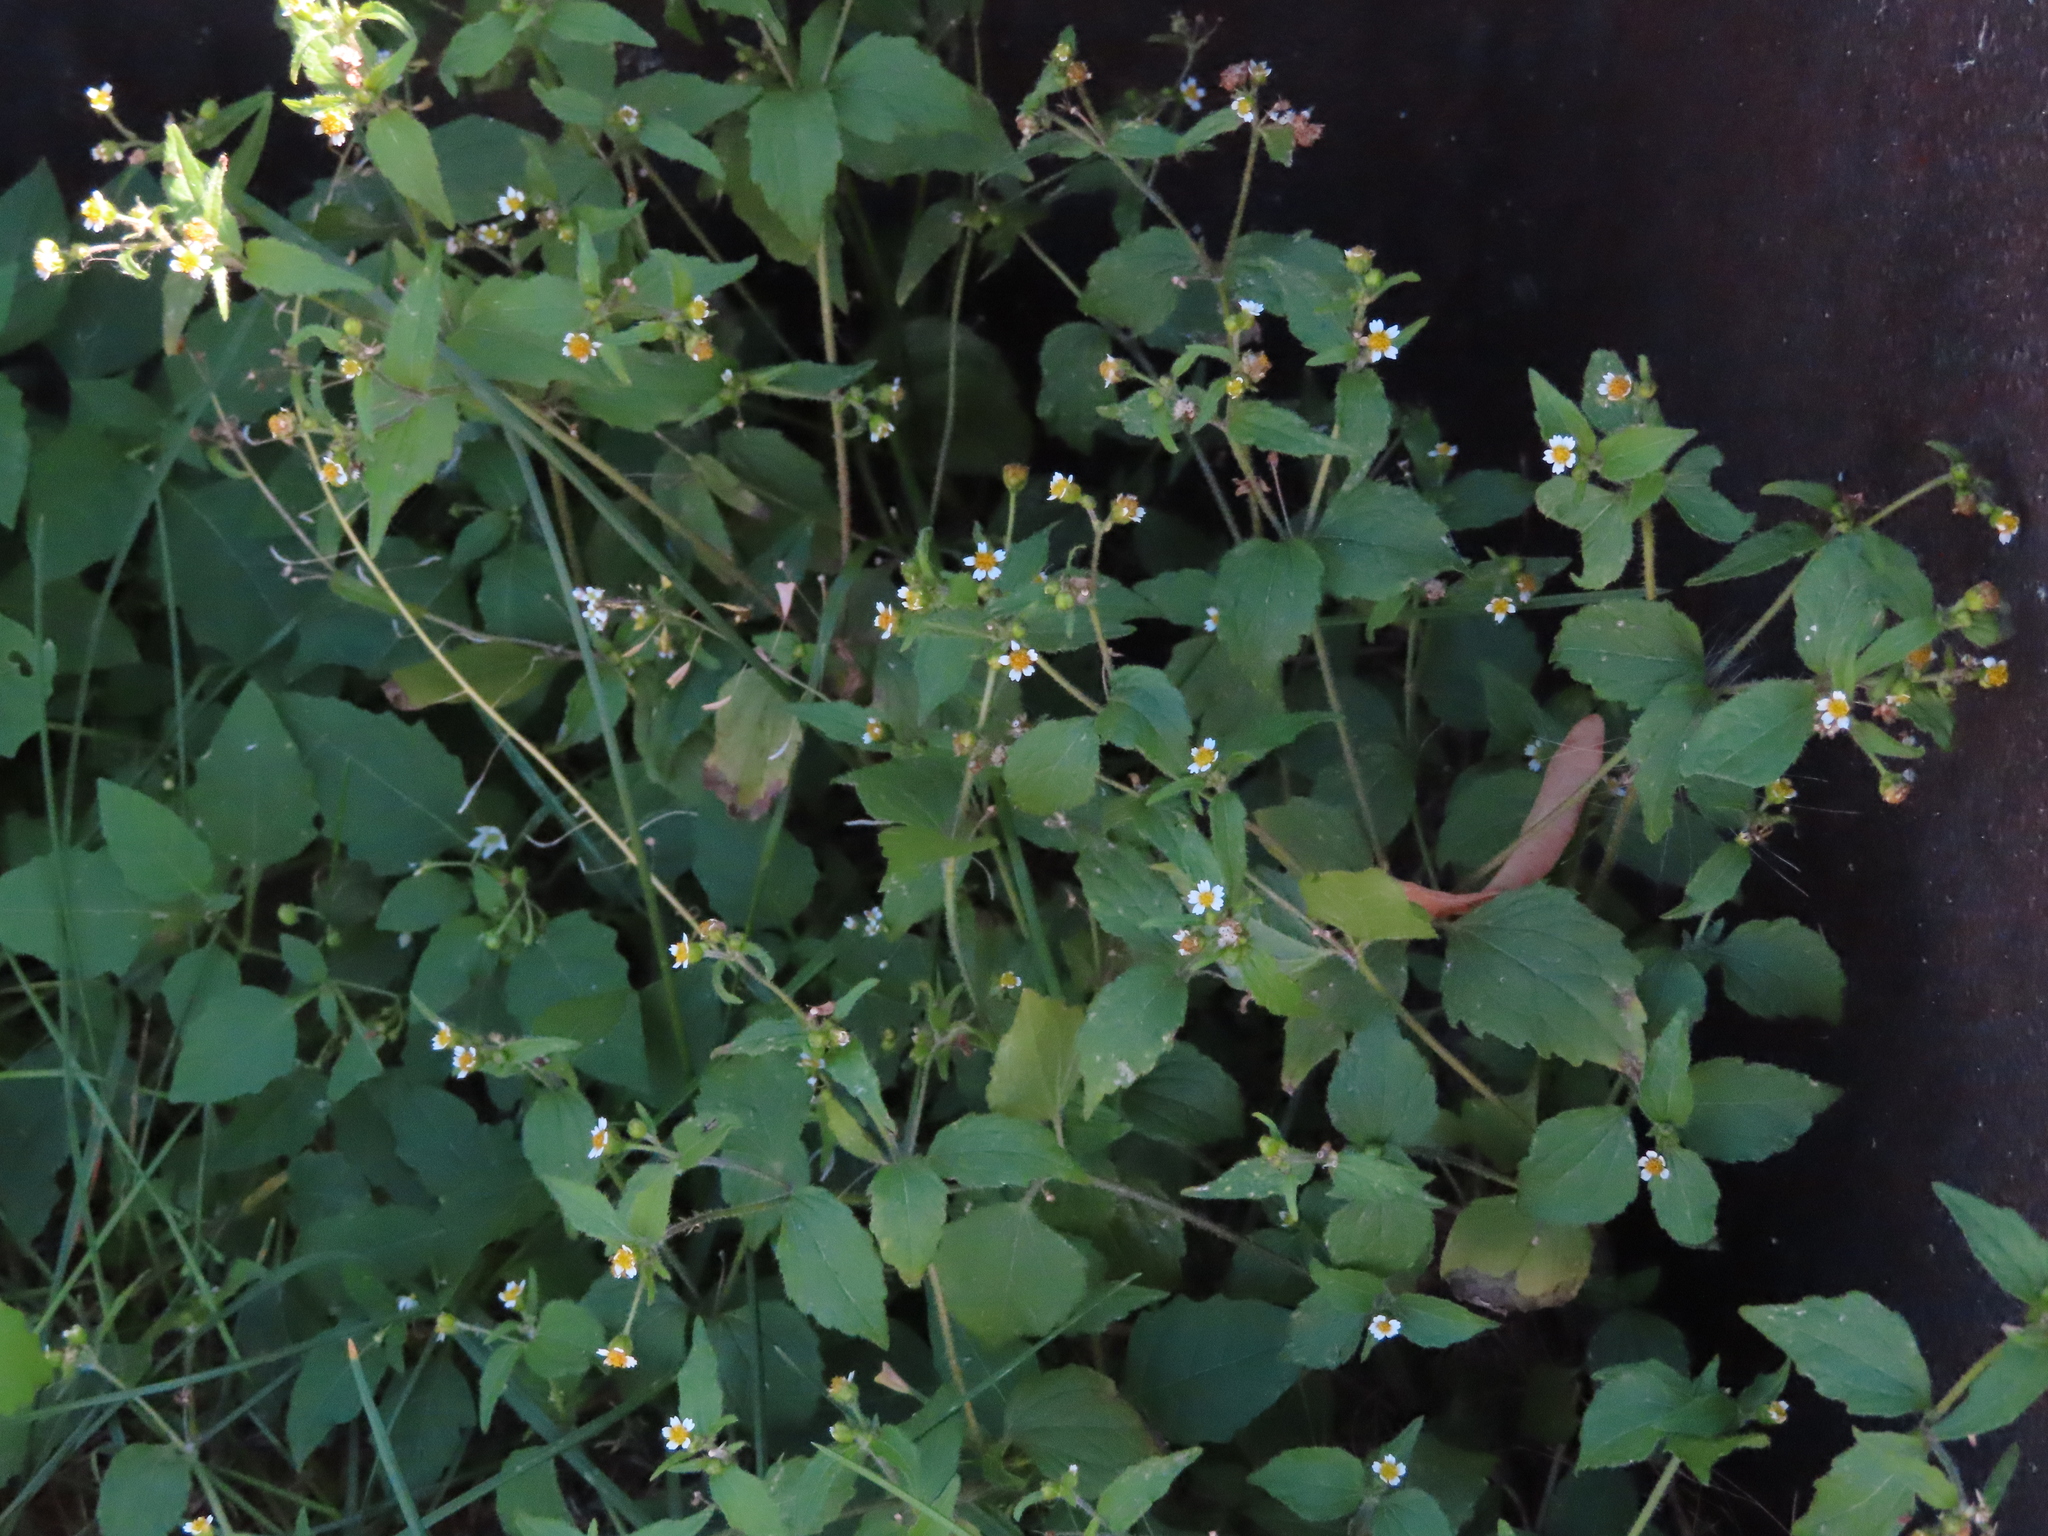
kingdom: Plantae
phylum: Tracheophyta
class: Magnoliopsida
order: Asterales
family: Asteraceae
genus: Galinsoga
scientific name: Galinsoga quadriradiata
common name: Shaggy soldier
